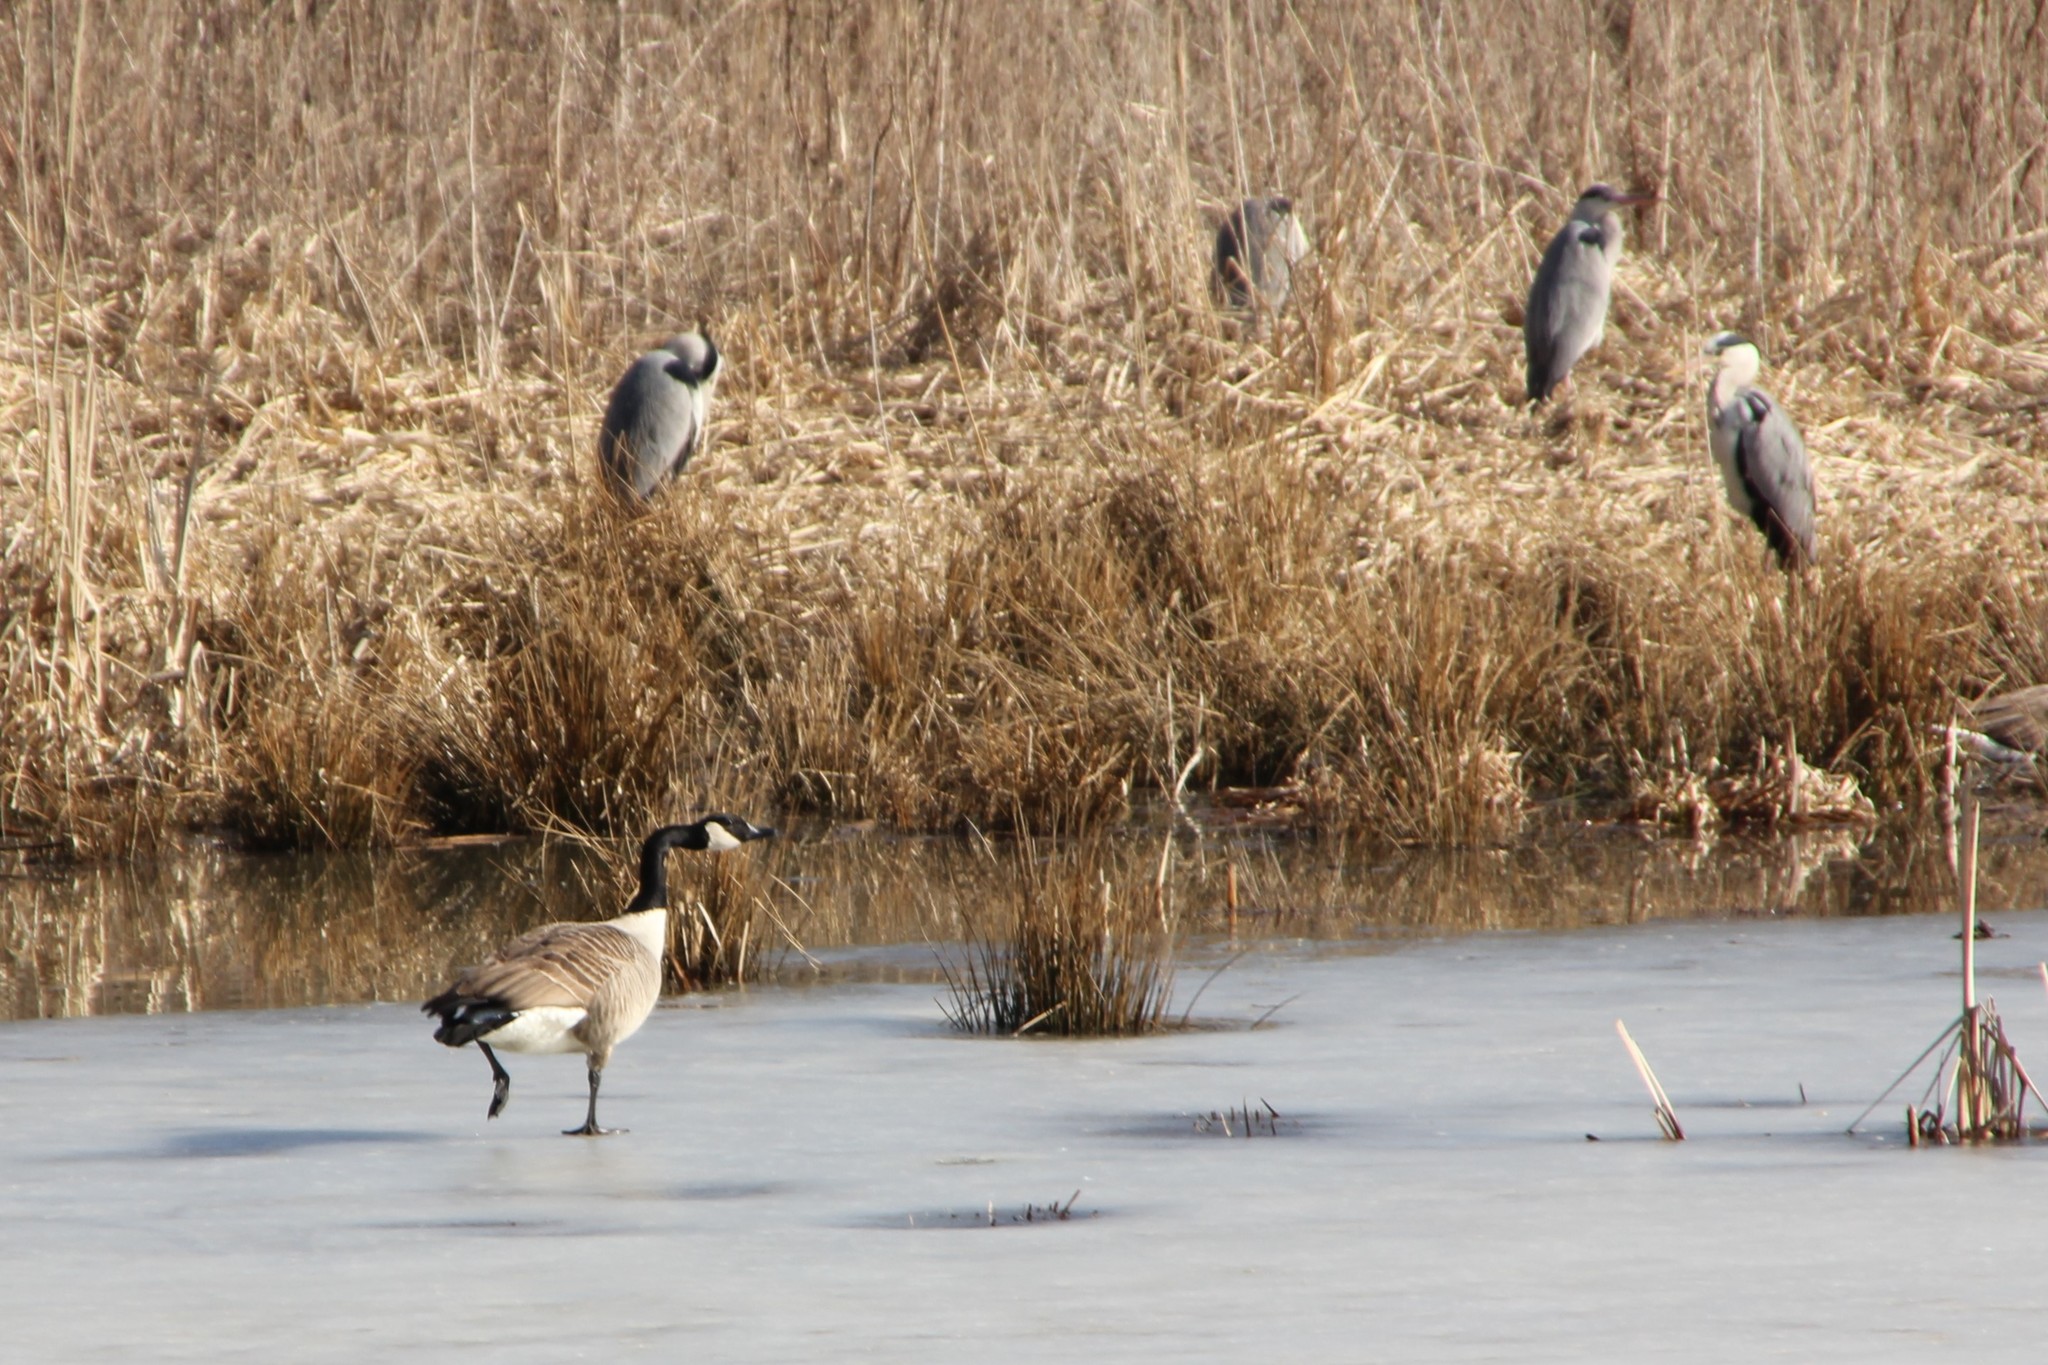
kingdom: Animalia
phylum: Chordata
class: Aves
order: Anseriformes
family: Anatidae
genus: Branta
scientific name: Branta canadensis
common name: Canada goose
